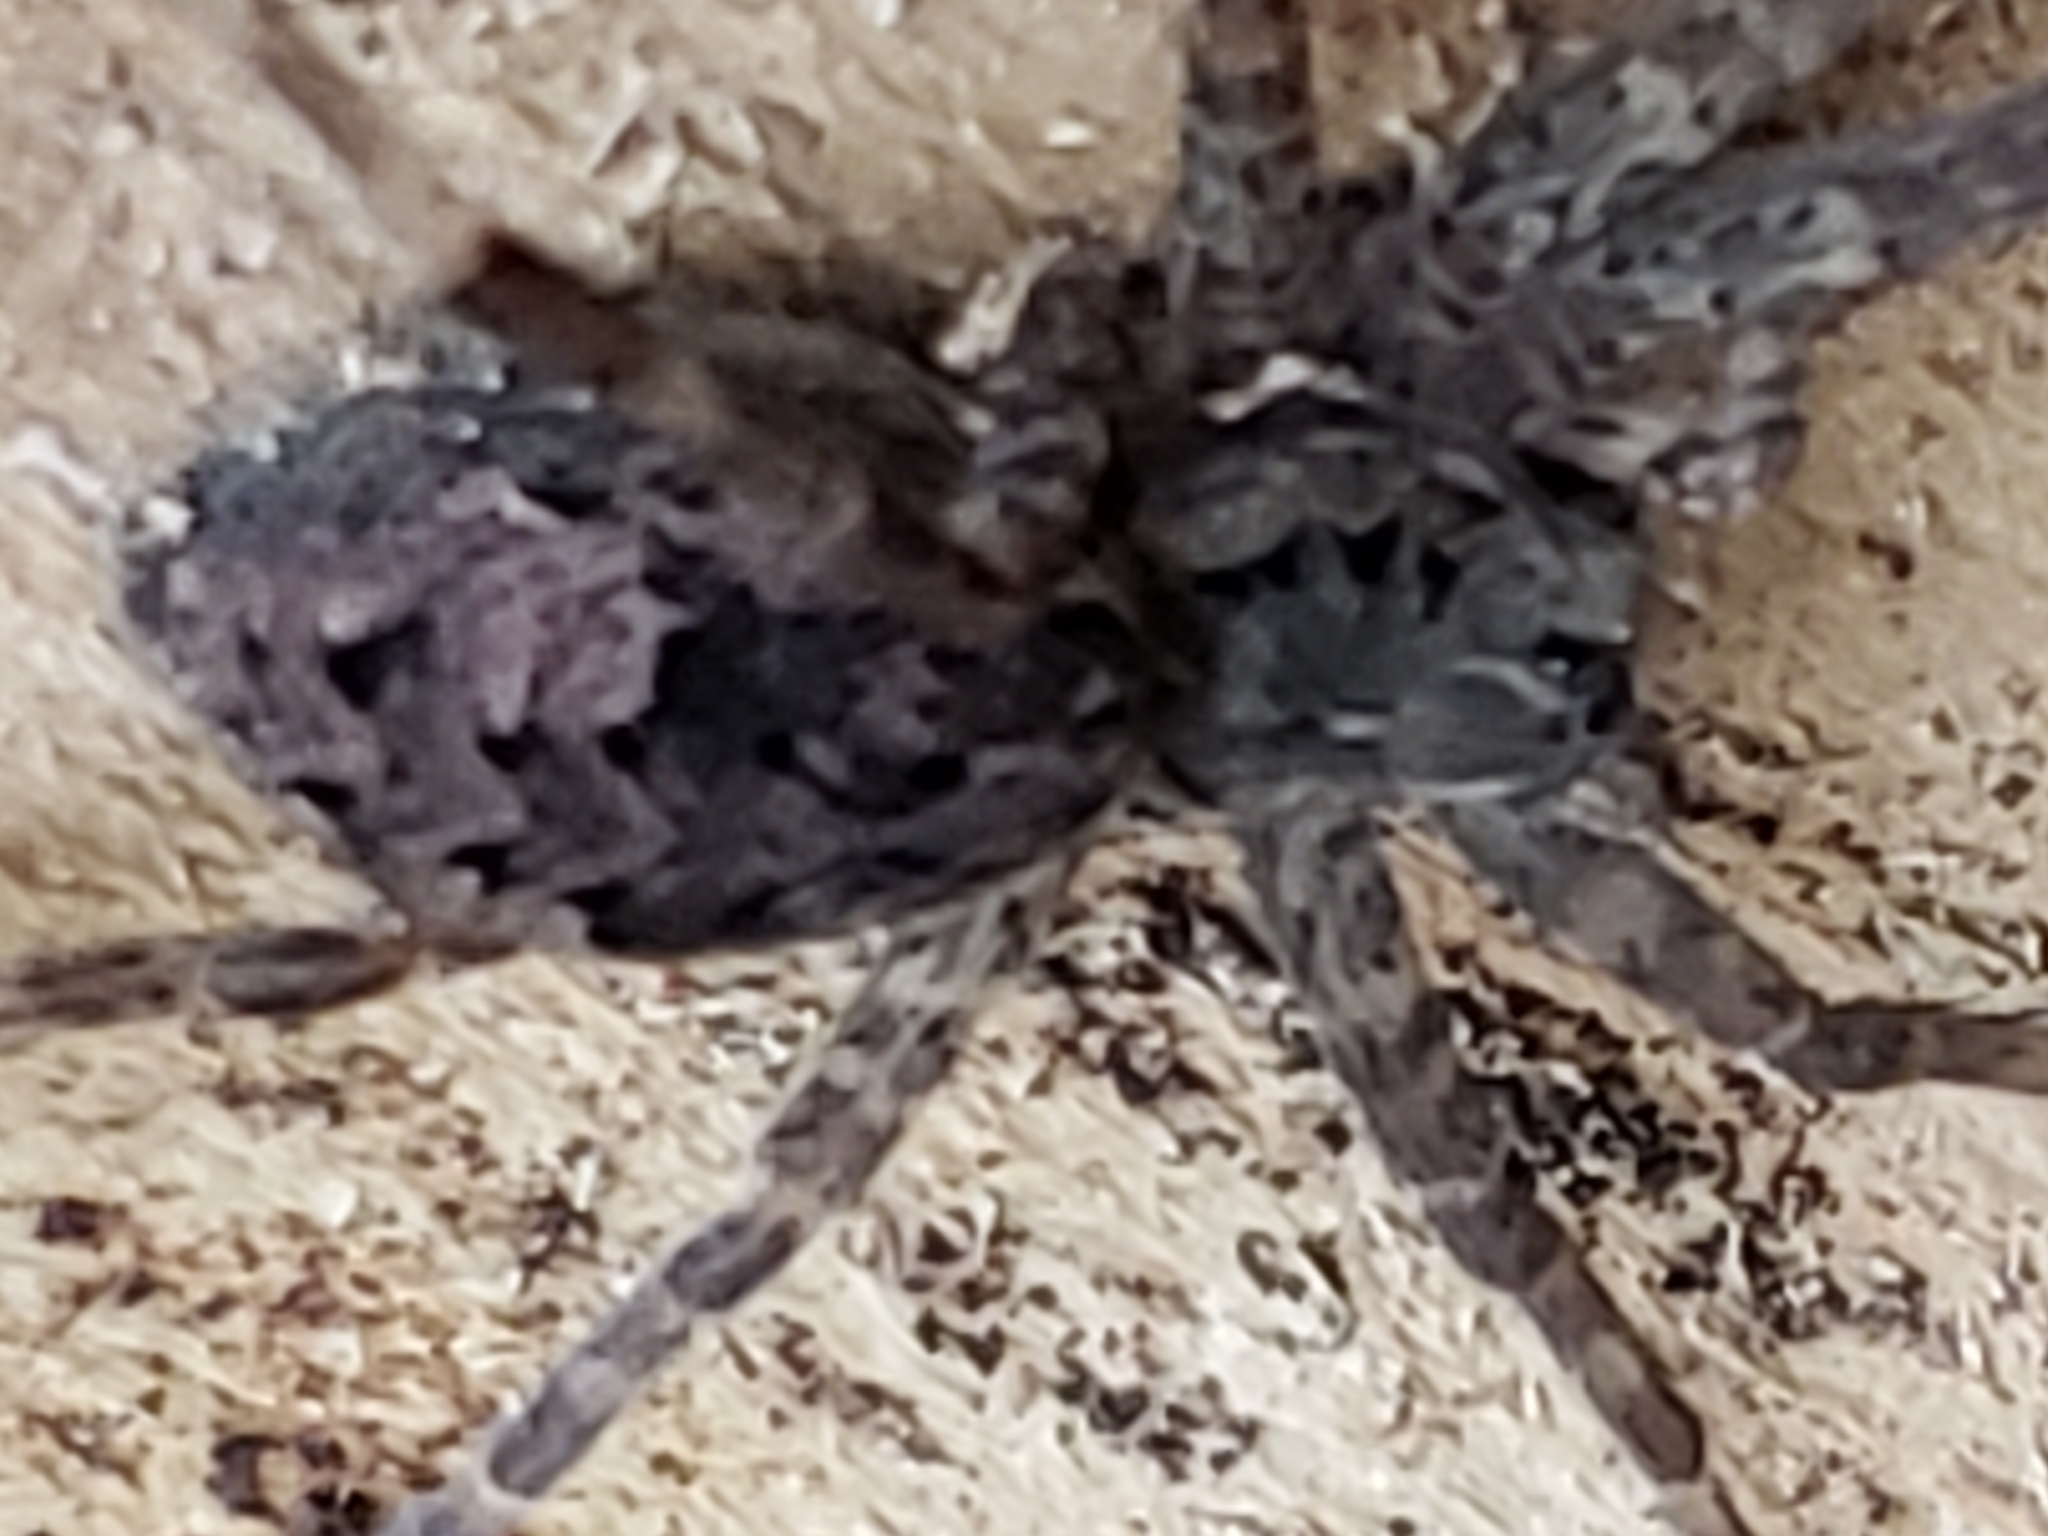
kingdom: Animalia
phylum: Arthropoda
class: Arachnida
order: Araneae
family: Pisauridae
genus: Dolomedes
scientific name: Dolomedes tenebrosus
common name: Dark fishing spider
